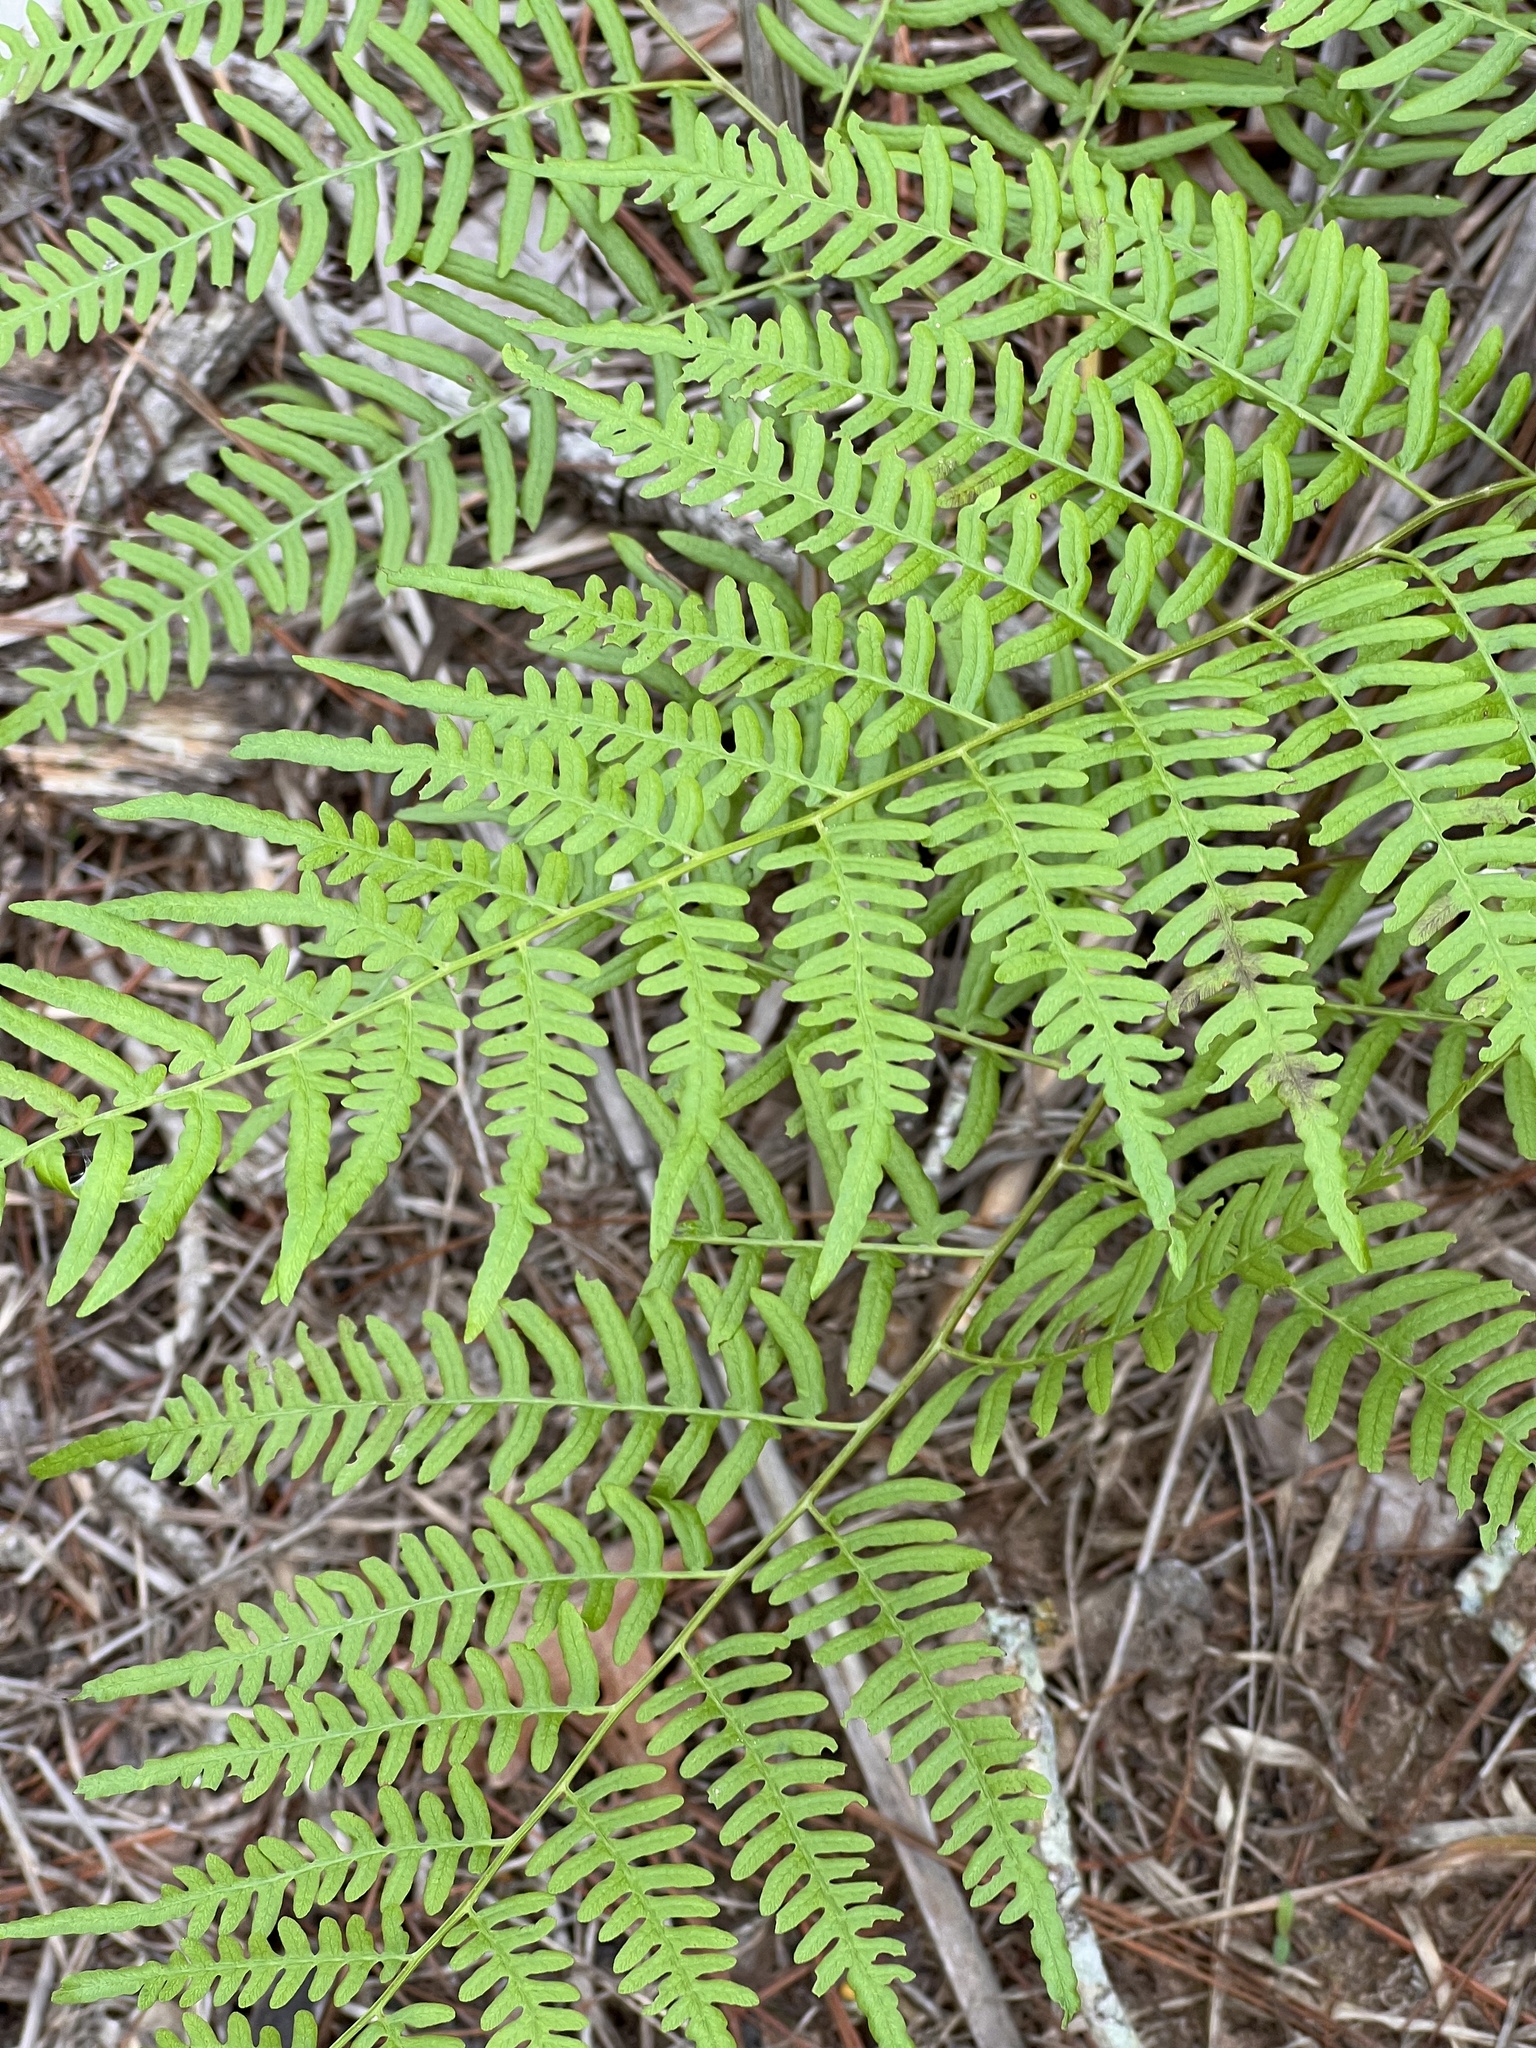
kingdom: Plantae
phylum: Tracheophyta
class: Polypodiopsida
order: Polypodiales
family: Dennstaedtiaceae
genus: Pteridium
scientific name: Pteridium aquilinum
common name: Bracken
